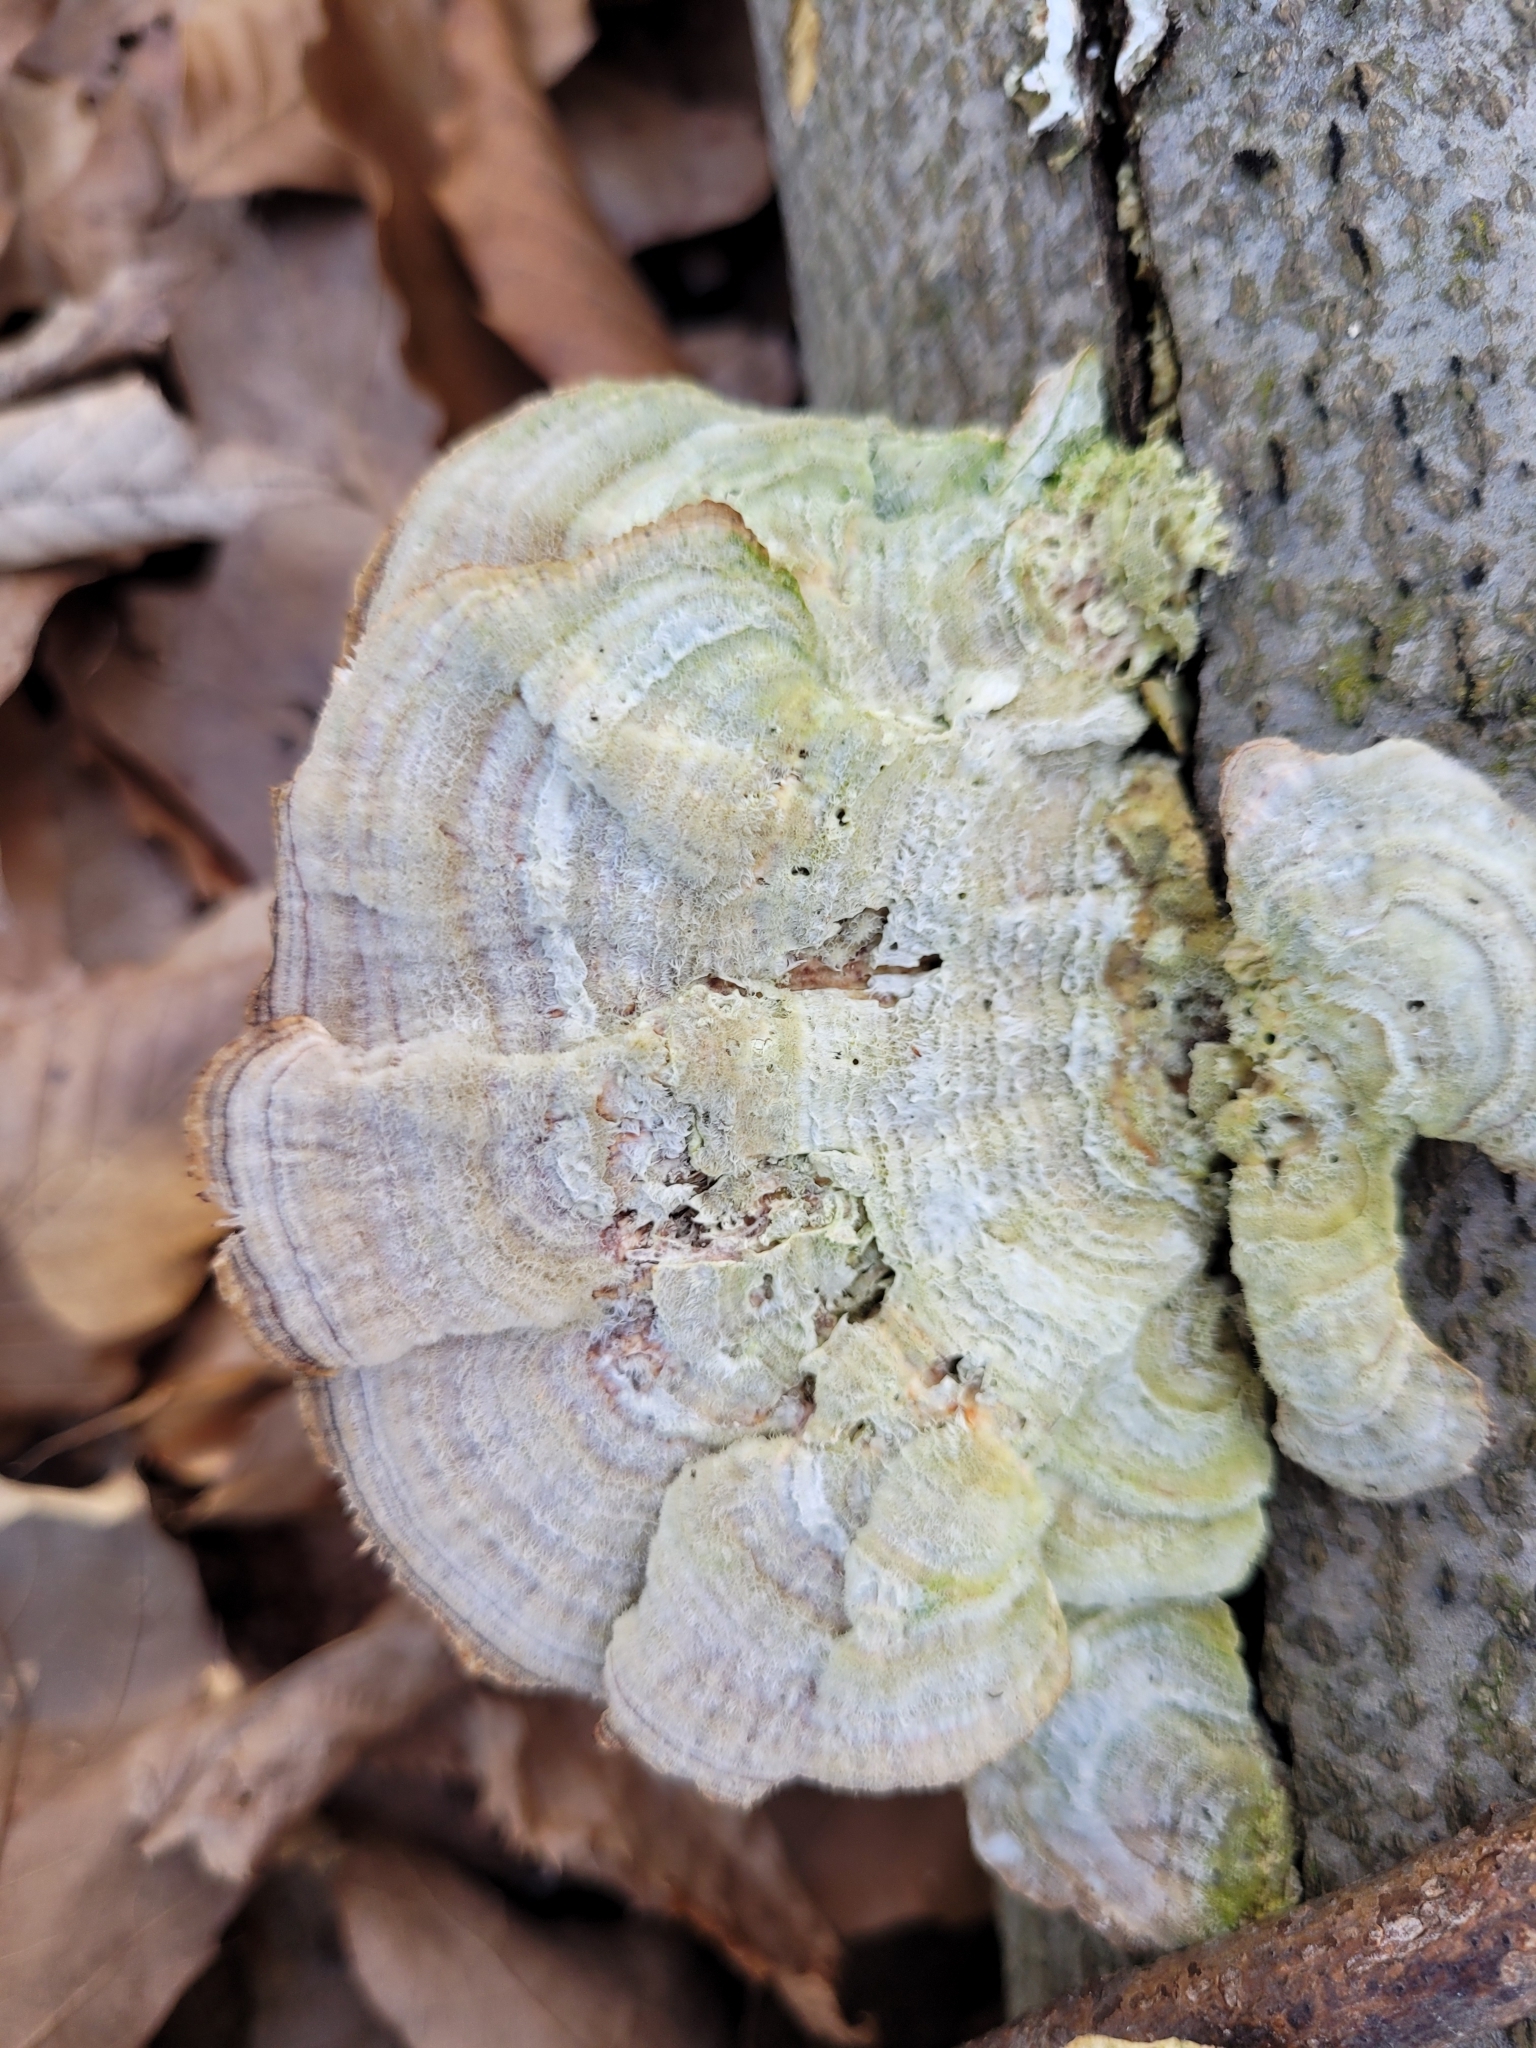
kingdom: Fungi
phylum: Basidiomycota
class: Agaricomycetes
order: Polyporales
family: Polyporaceae
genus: Lenzites
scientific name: Lenzites betulinus
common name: Birch mazegill
